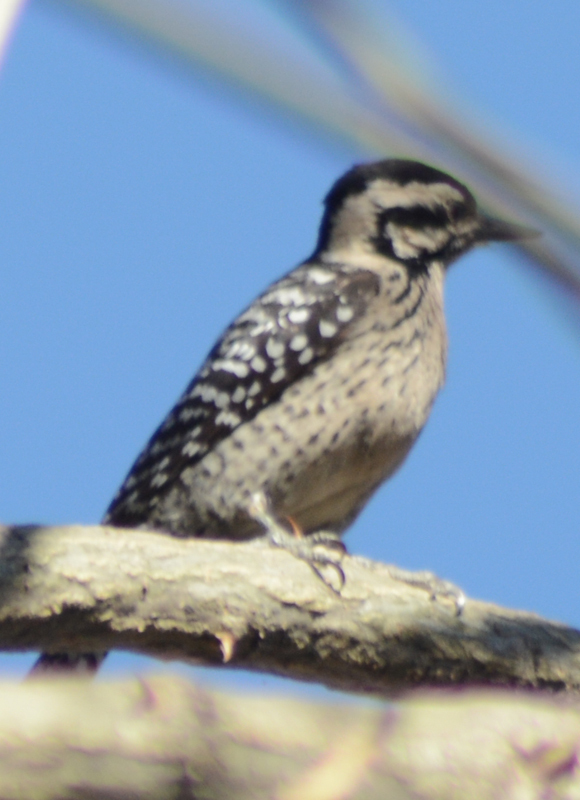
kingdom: Animalia
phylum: Chordata
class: Aves
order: Piciformes
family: Picidae
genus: Dryobates
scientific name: Dryobates scalaris
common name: Ladder-backed woodpecker
